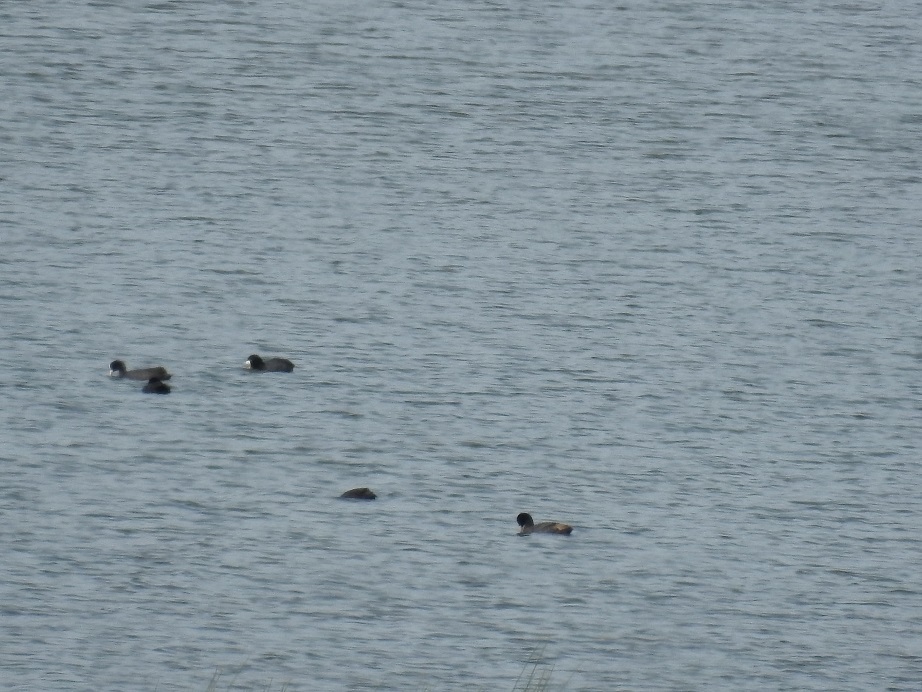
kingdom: Animalia
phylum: Chordata
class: Aves
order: Gruiformes
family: Rallidae
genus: Fulica
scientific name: Fulica atra
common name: Eurasian coot
